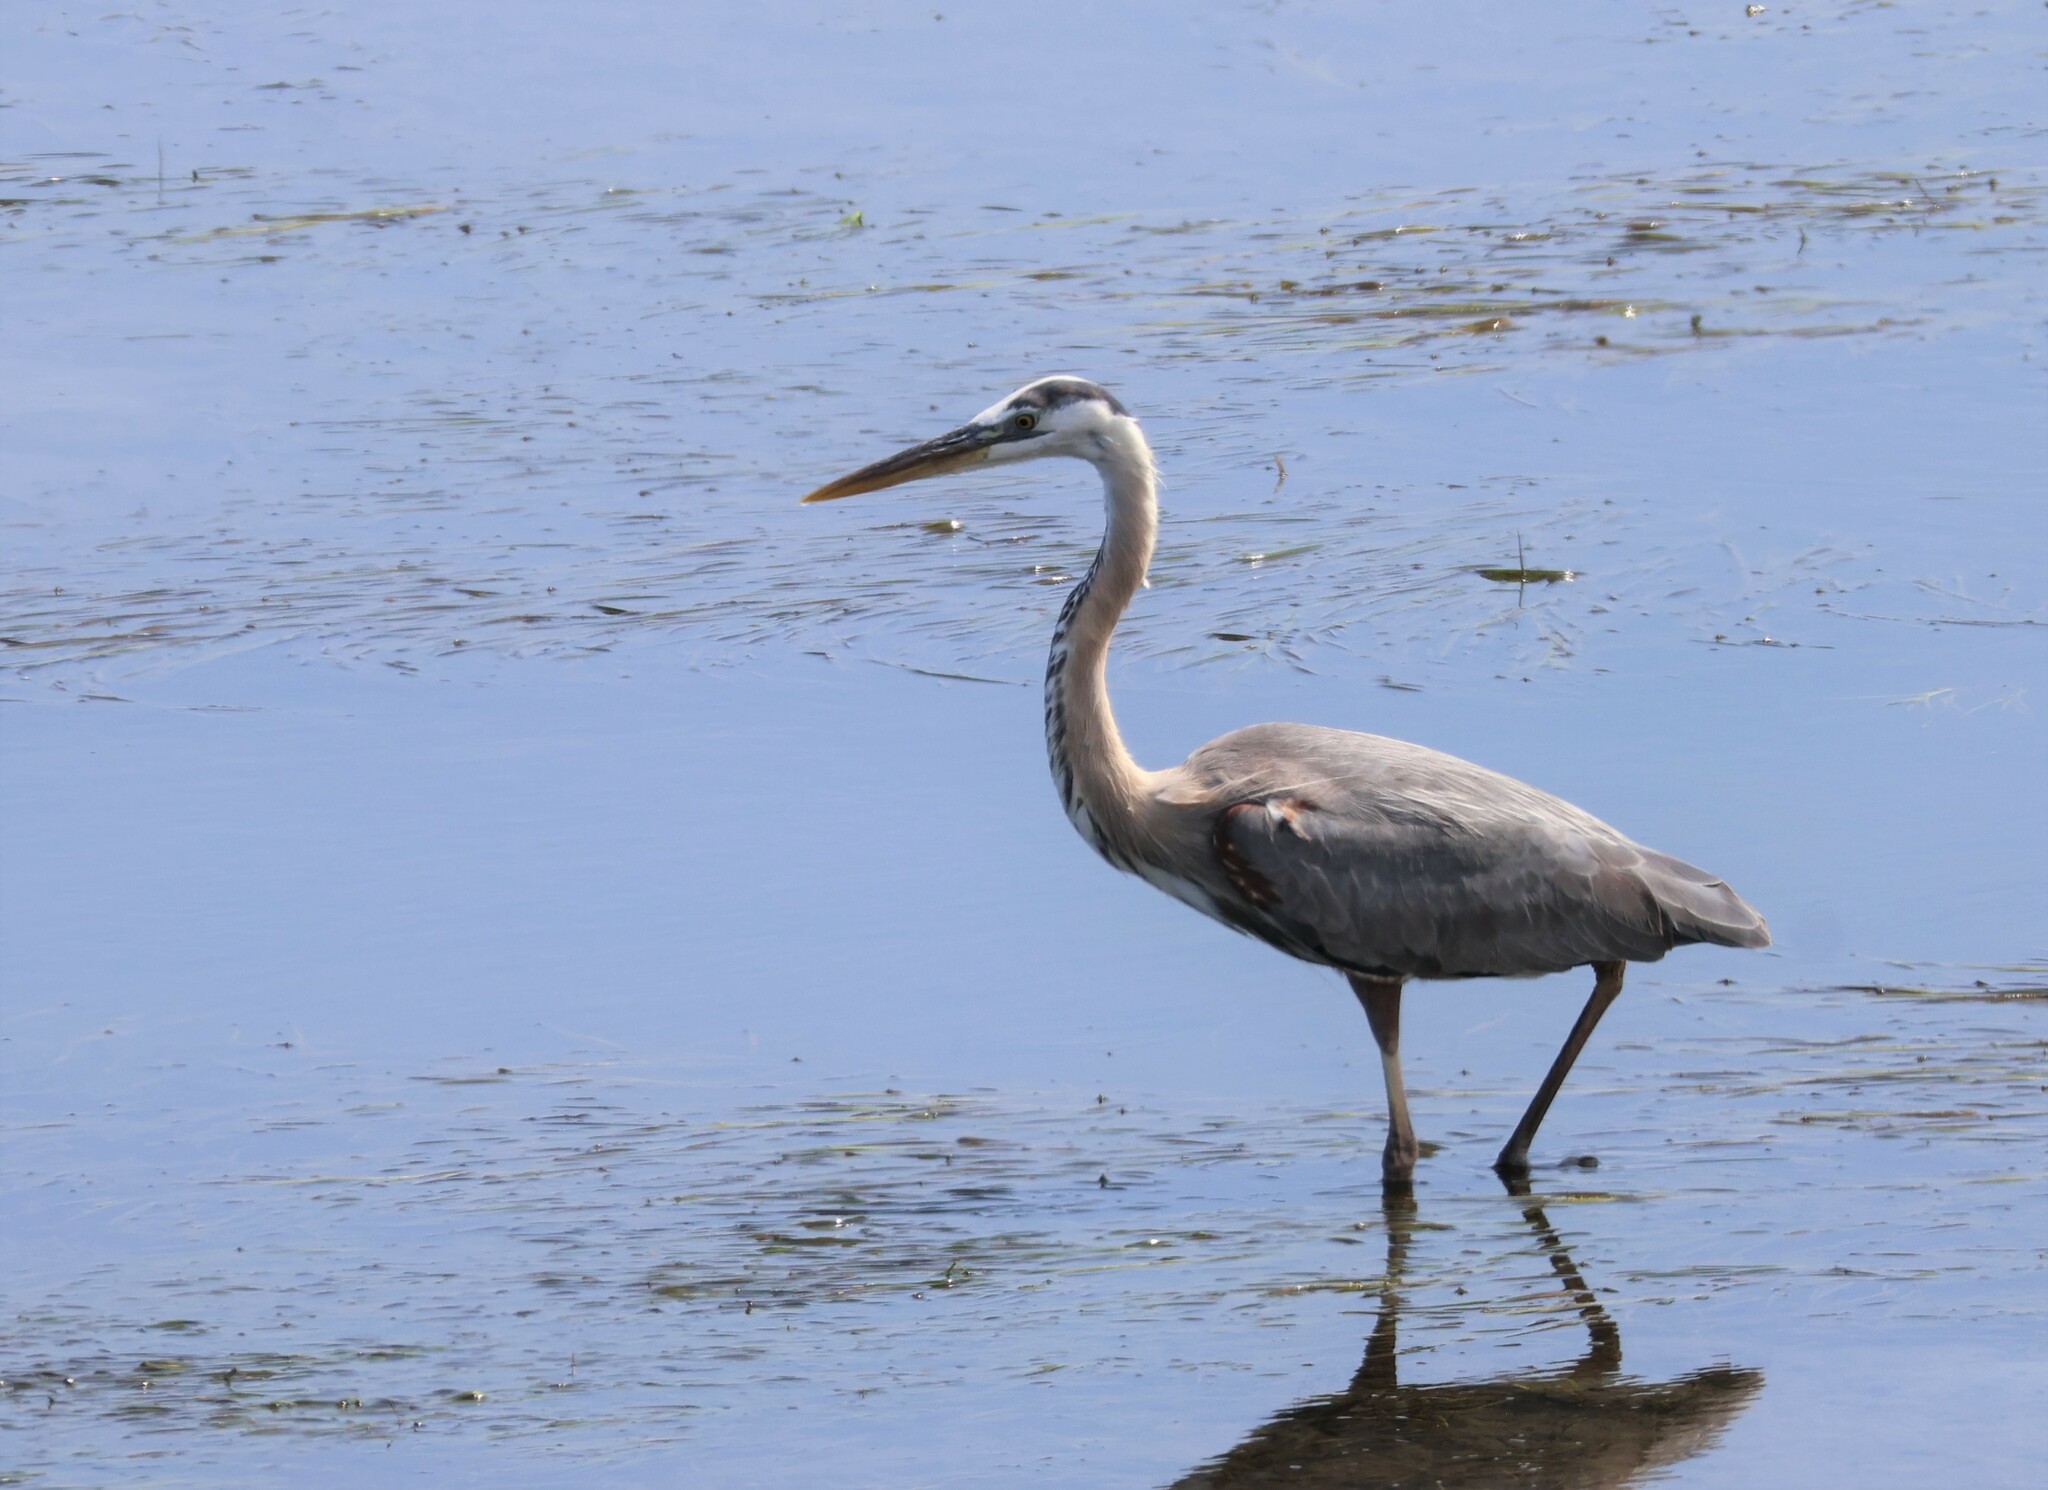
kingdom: Animalia
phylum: Chordata
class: Aves
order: Pelecaniformes
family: Ardeidae
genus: Ardea
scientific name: Ardea herodias
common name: Great blue heron
